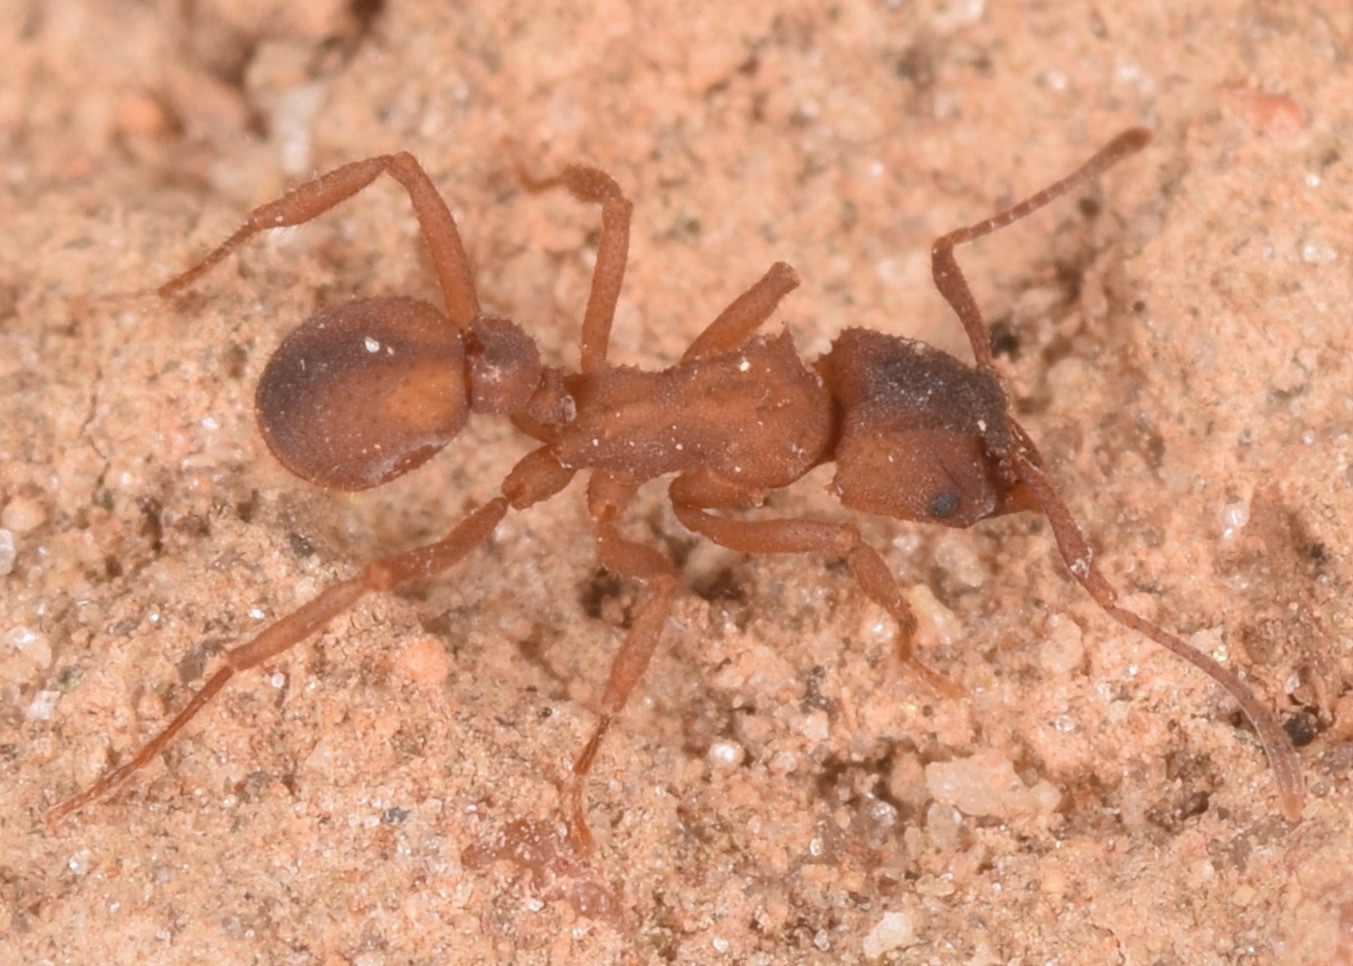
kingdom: Animalia
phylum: Arthropoda
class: Insecta
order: Hymenoptera
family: Formicidae
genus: Trachymyrmex
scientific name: Trachymyrmex septentrionalis
